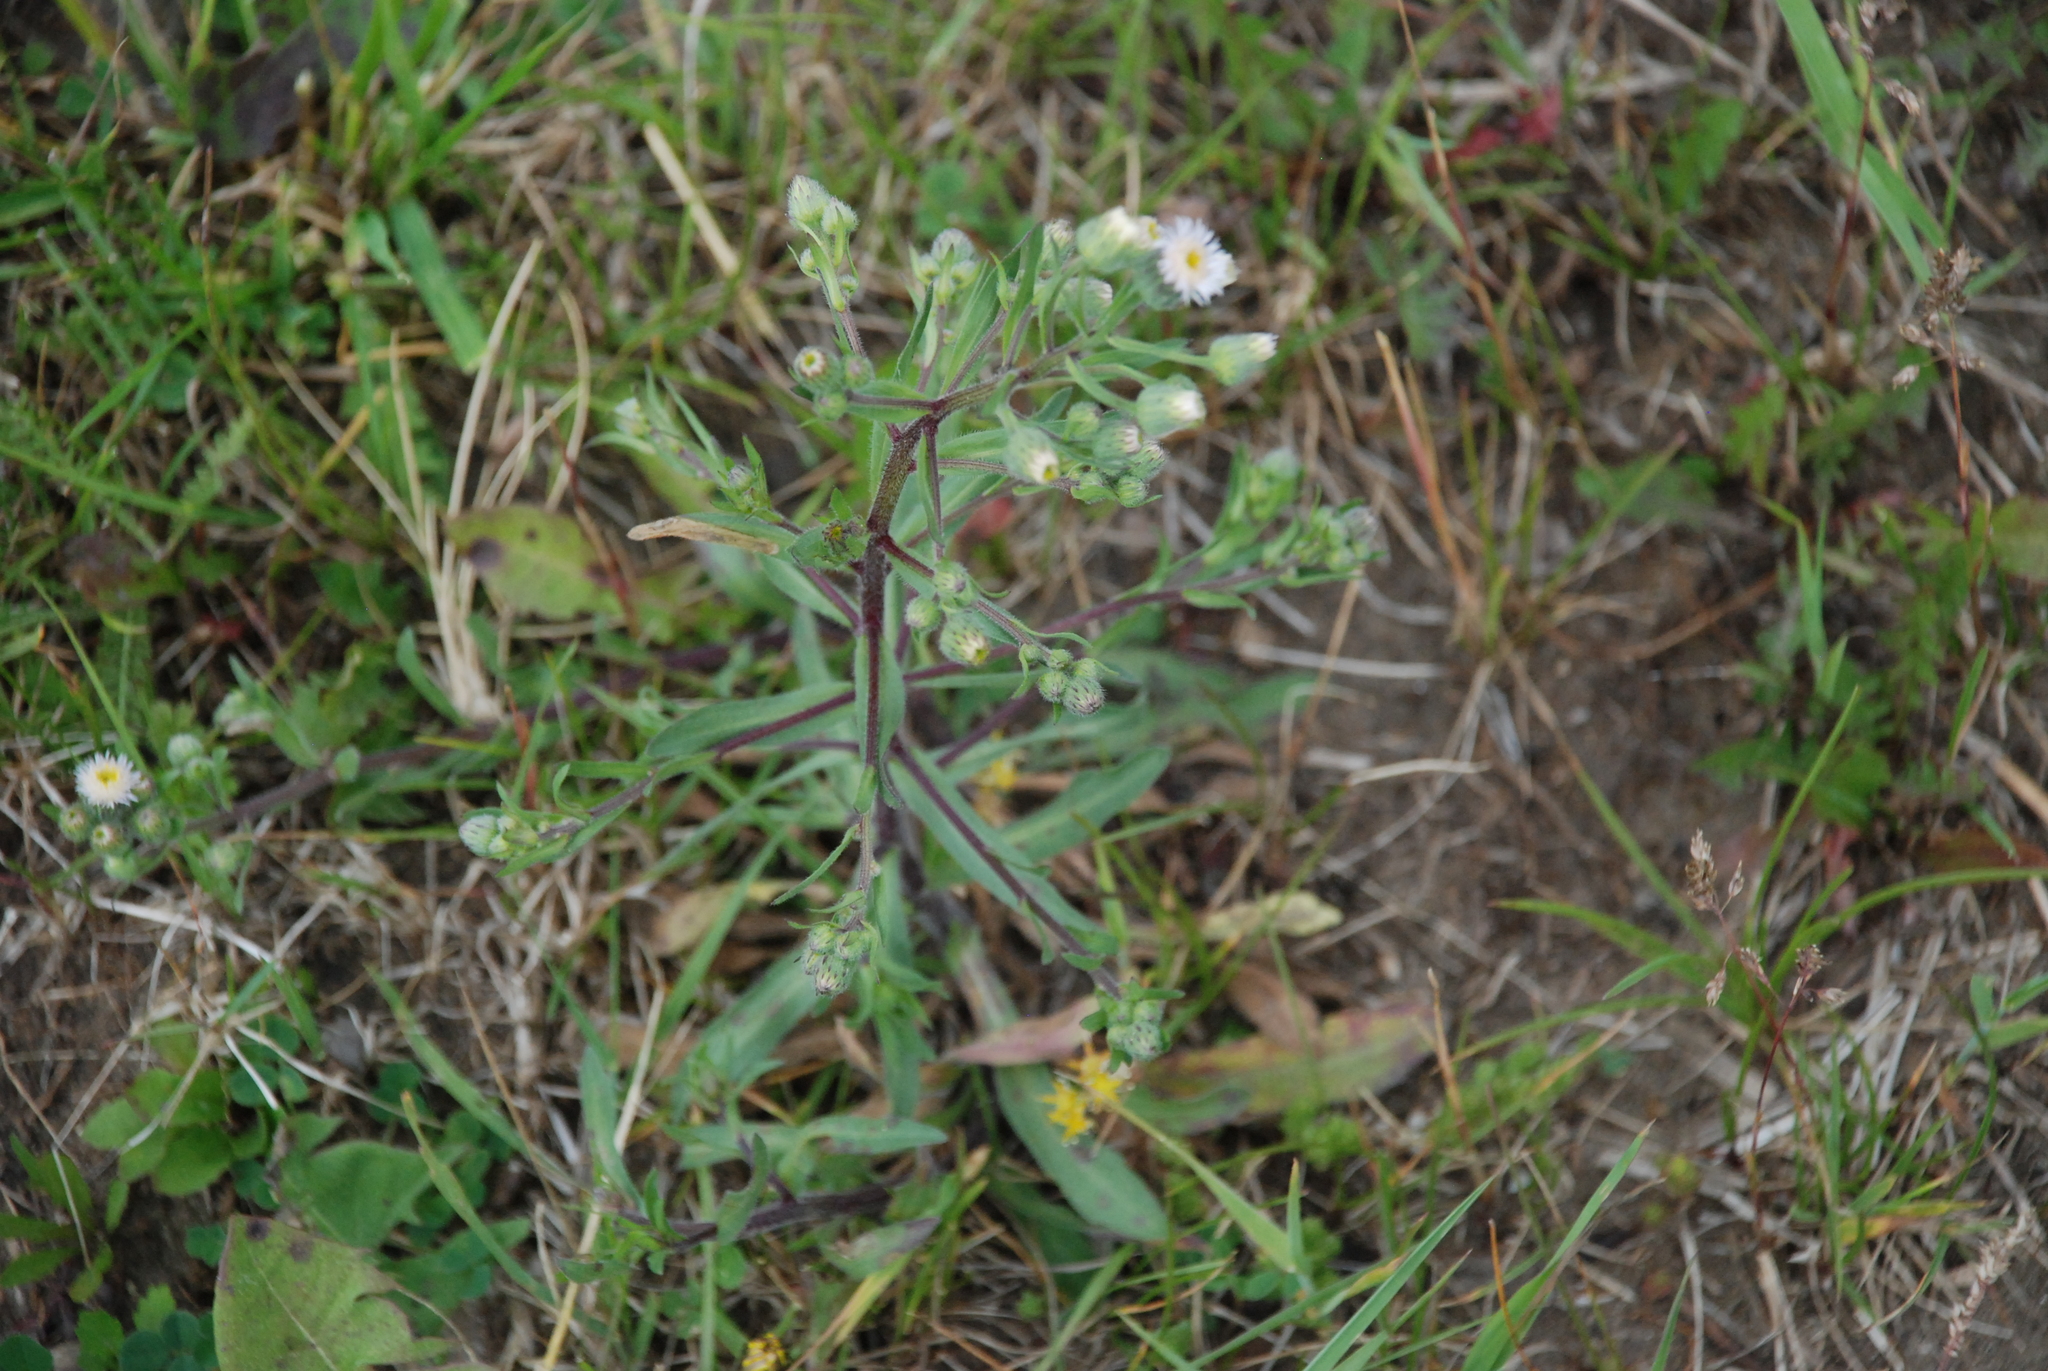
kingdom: Plantae
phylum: Tracheophyta
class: Magnoliopsida
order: Asterales
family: Asteraceae
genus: Erigeron
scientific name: Erigeron acris
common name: Blue fleabane
